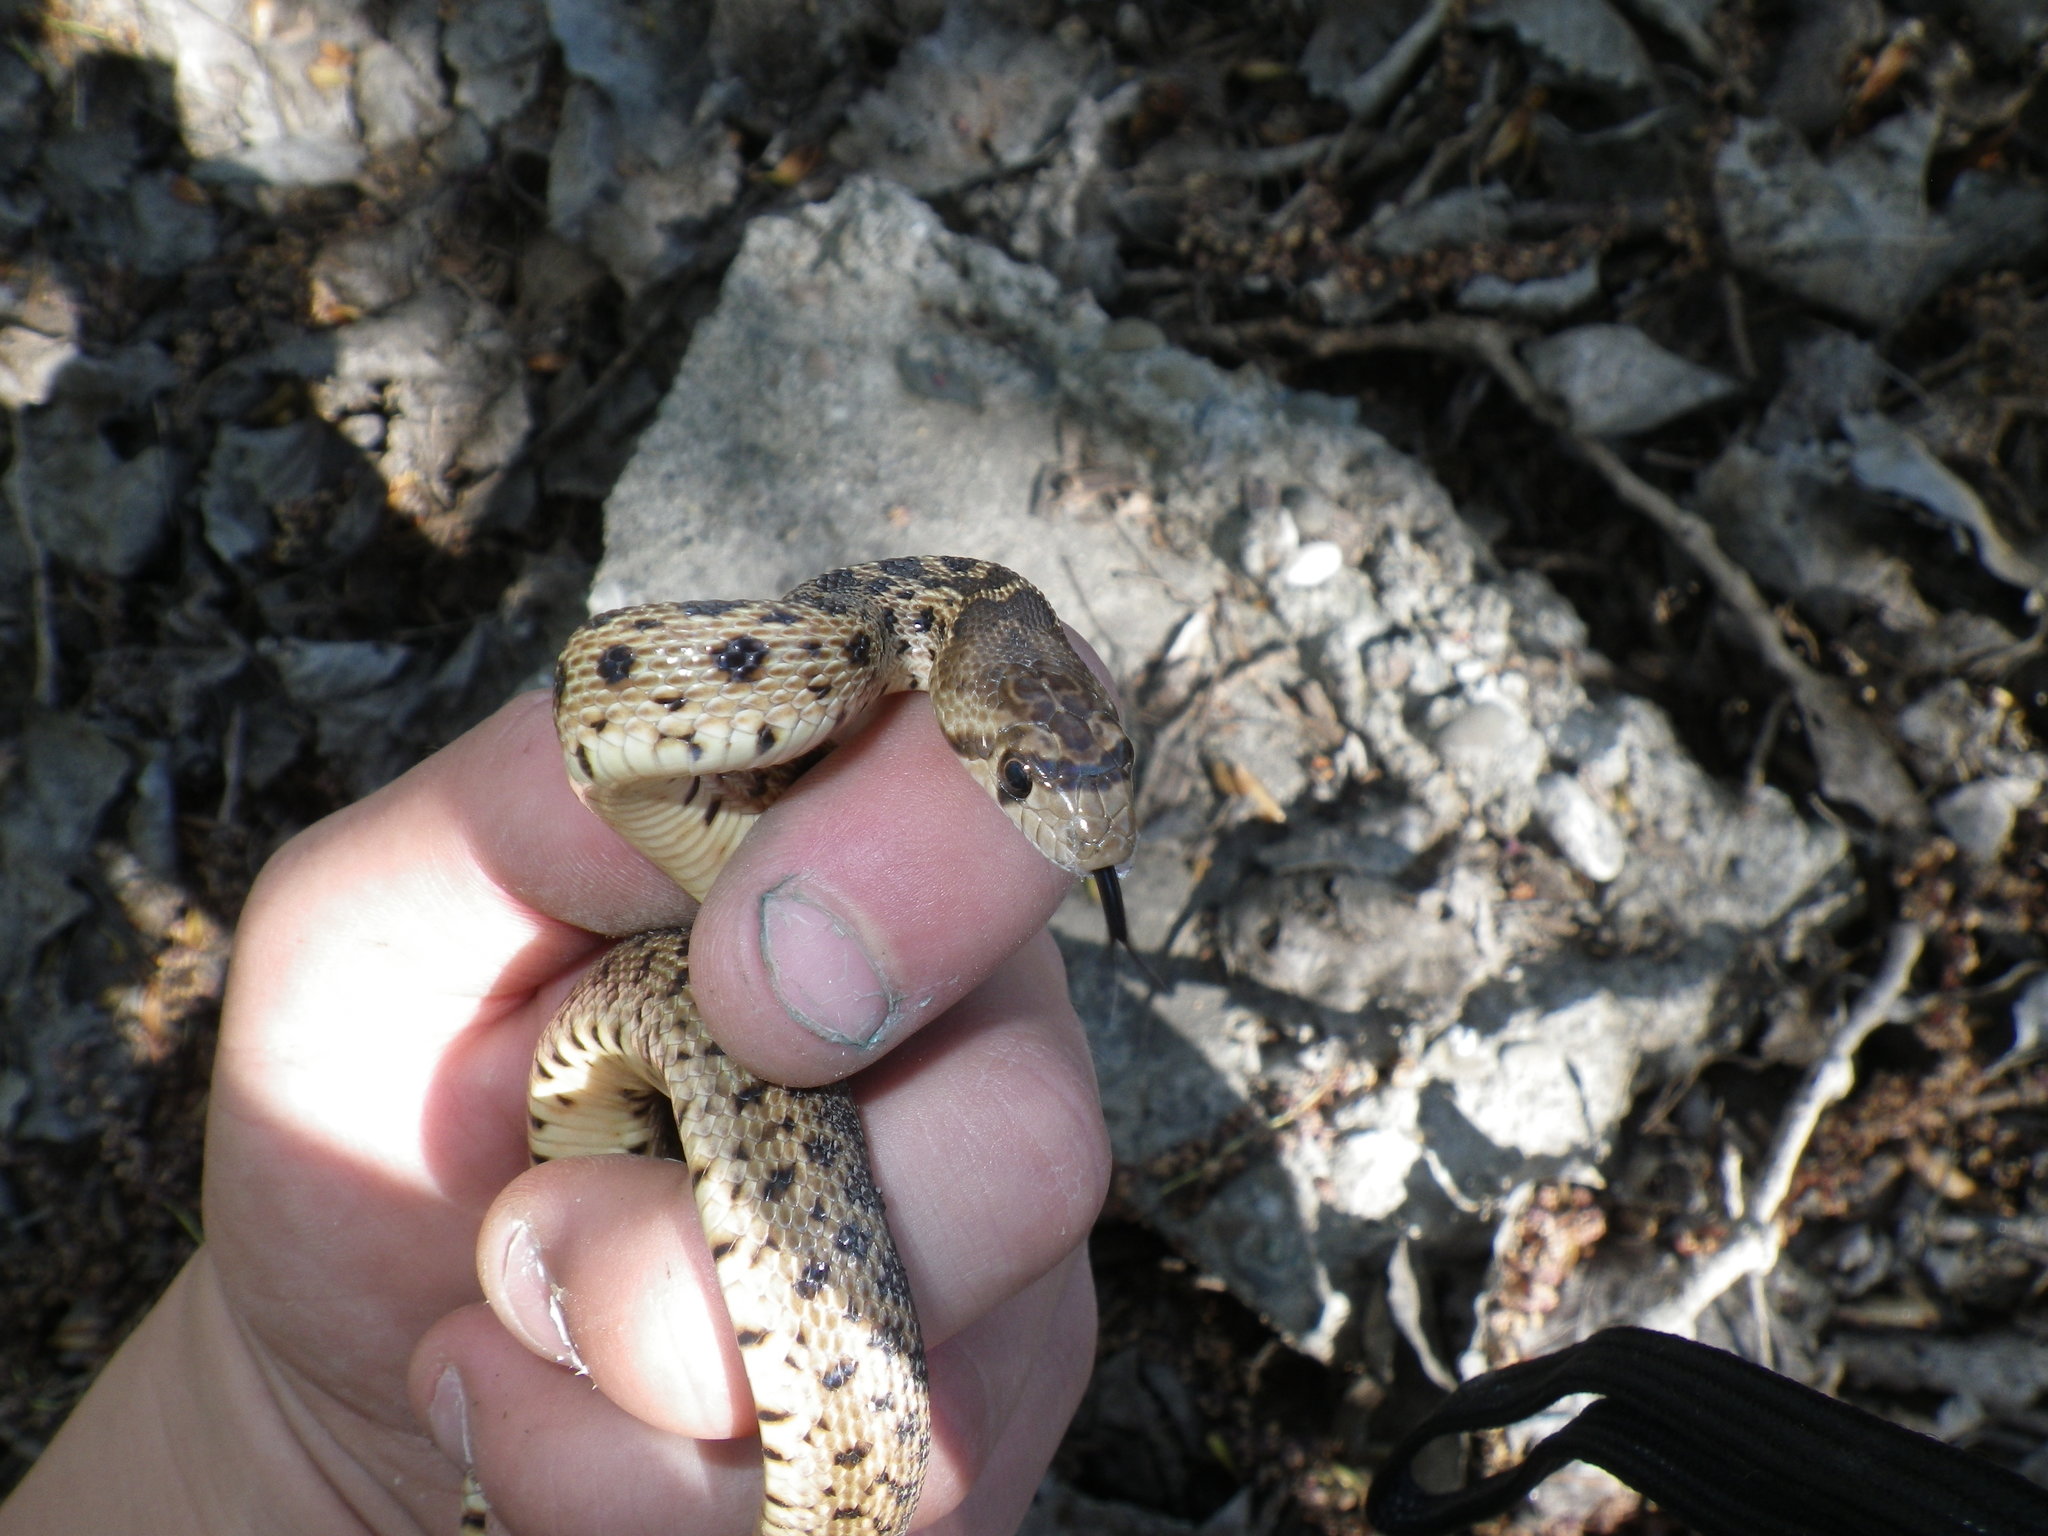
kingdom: Animalia
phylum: Chordata
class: Squamata
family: Colubridae
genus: Pituophis
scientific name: Pituophis catenifer
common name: Gopher snake
